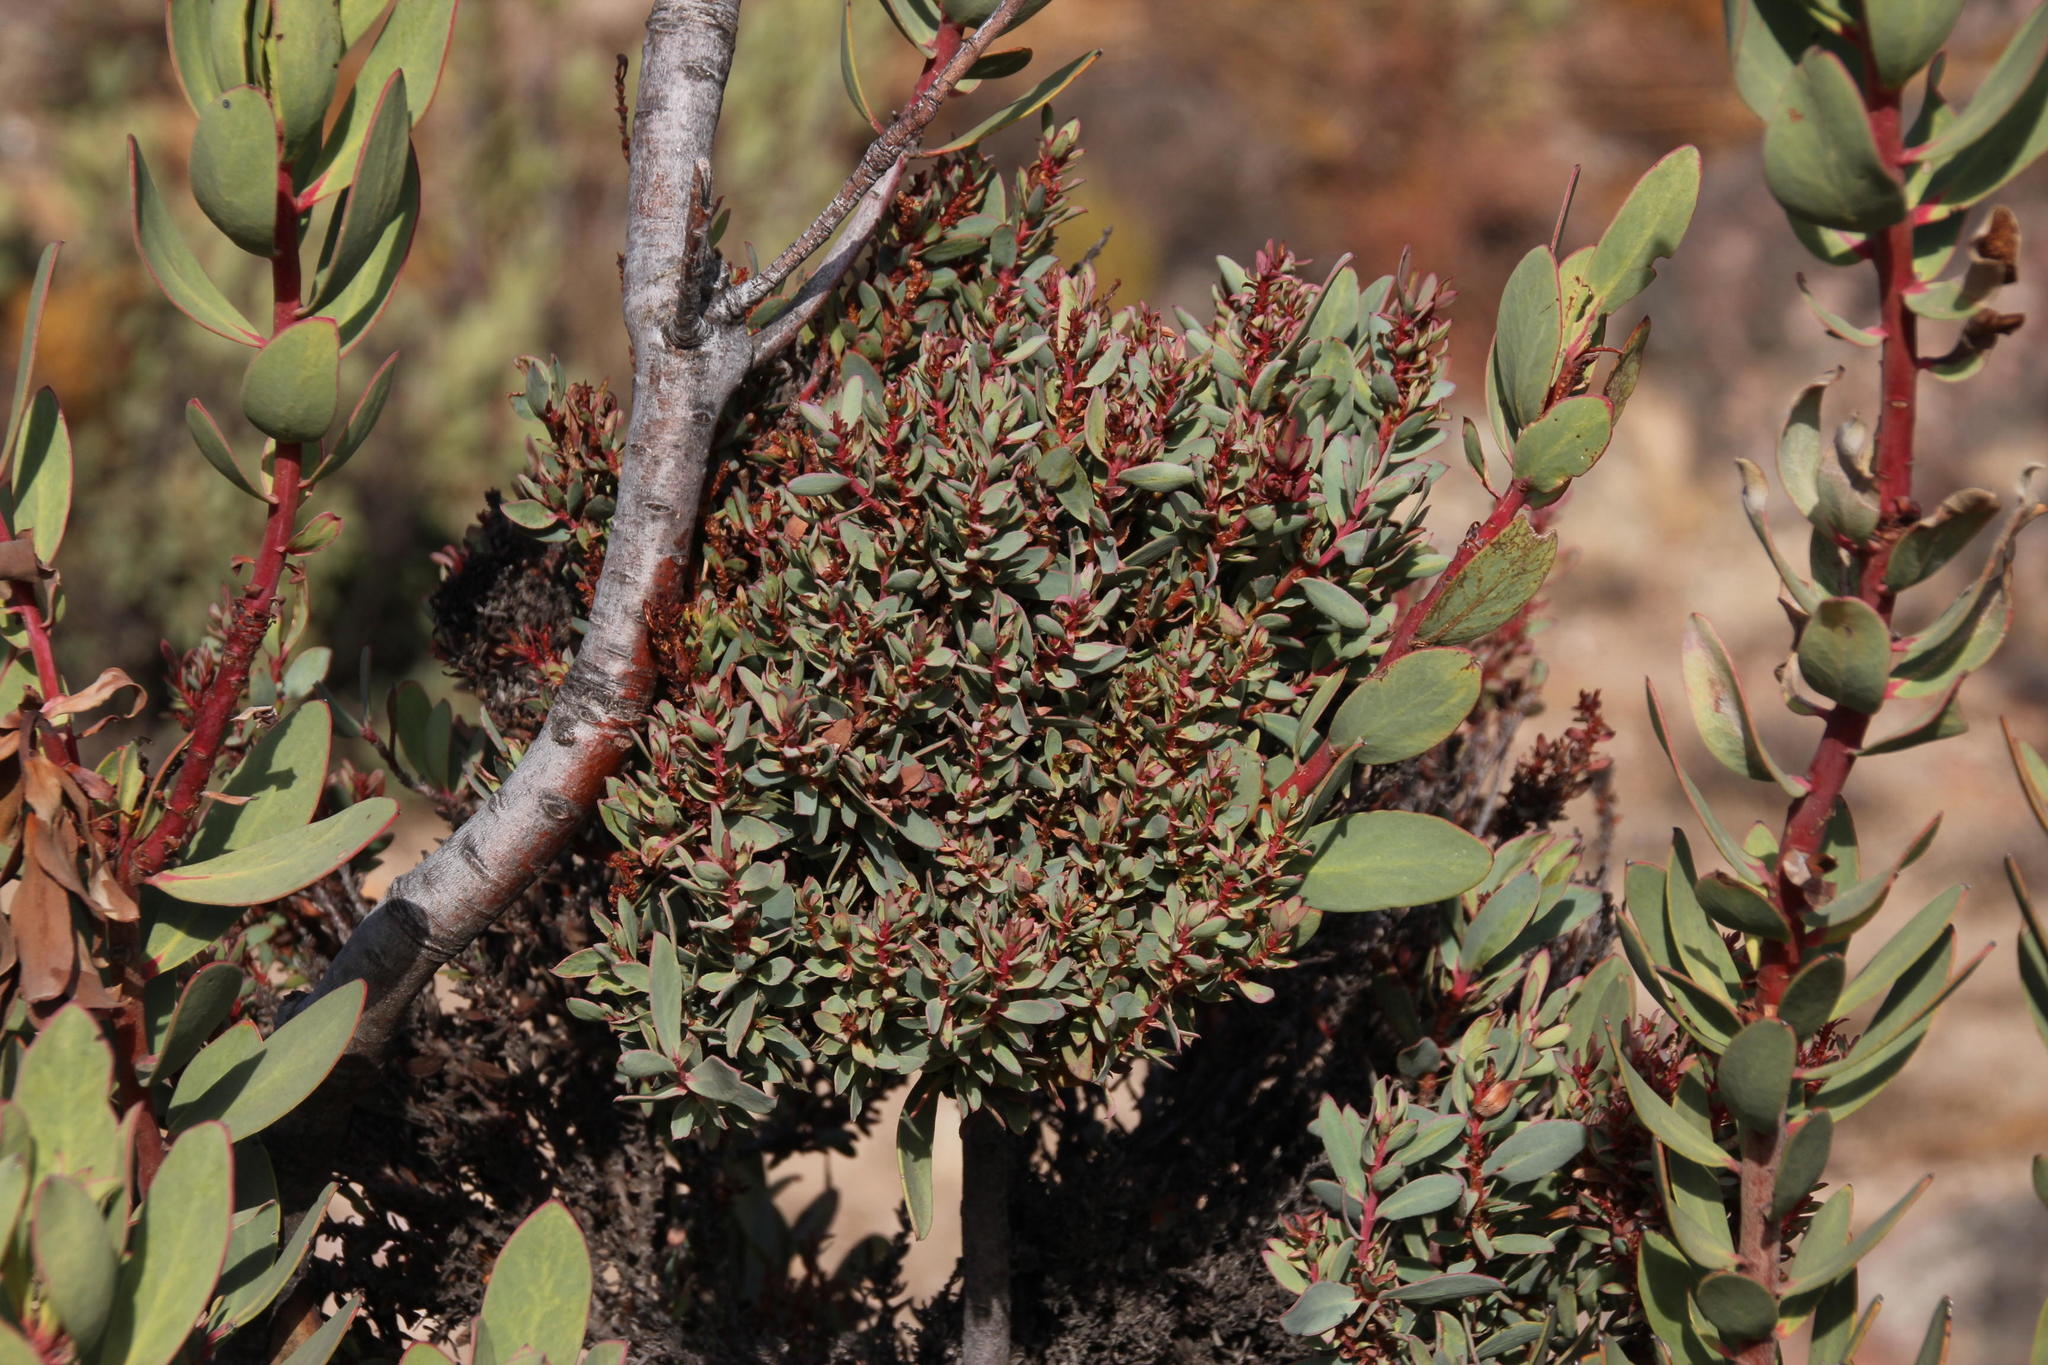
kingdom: Bacteria
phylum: Firmicutes
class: Bacilli
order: Acholeplasmatales
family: Acholeplasmataceae
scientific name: Acholeplasmataceae
